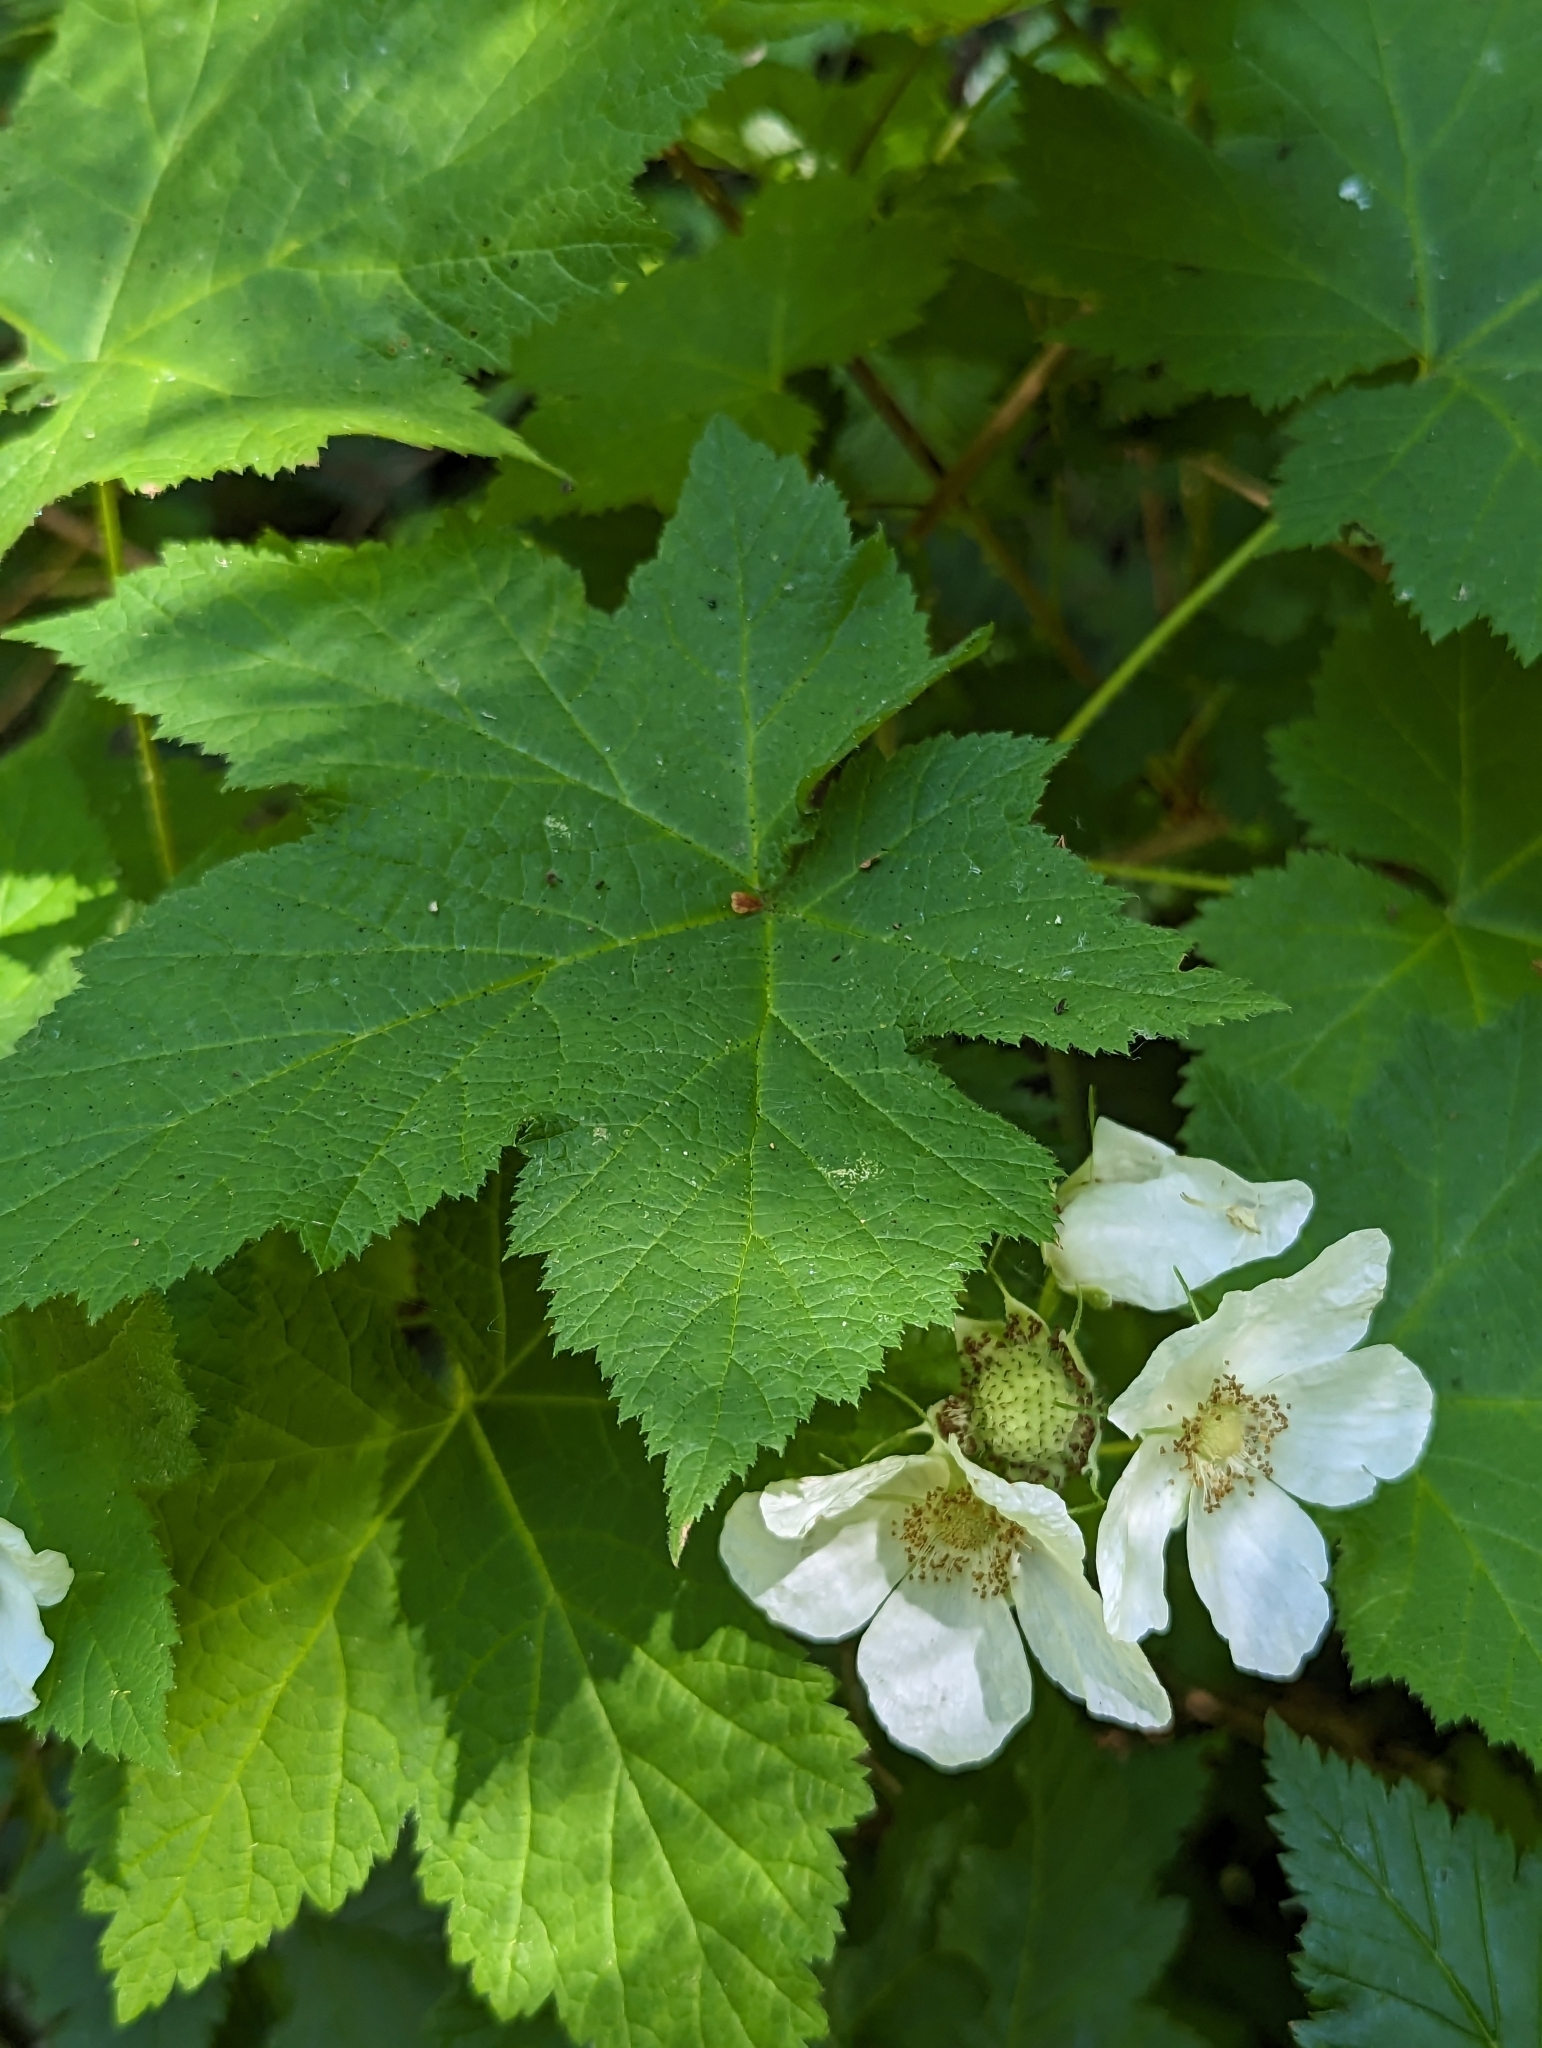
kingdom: Plantae
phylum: Tracheophyta
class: Magnoliopsida
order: Rosales
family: Rosaceae
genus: Rubus
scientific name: Rubus parviflorus
